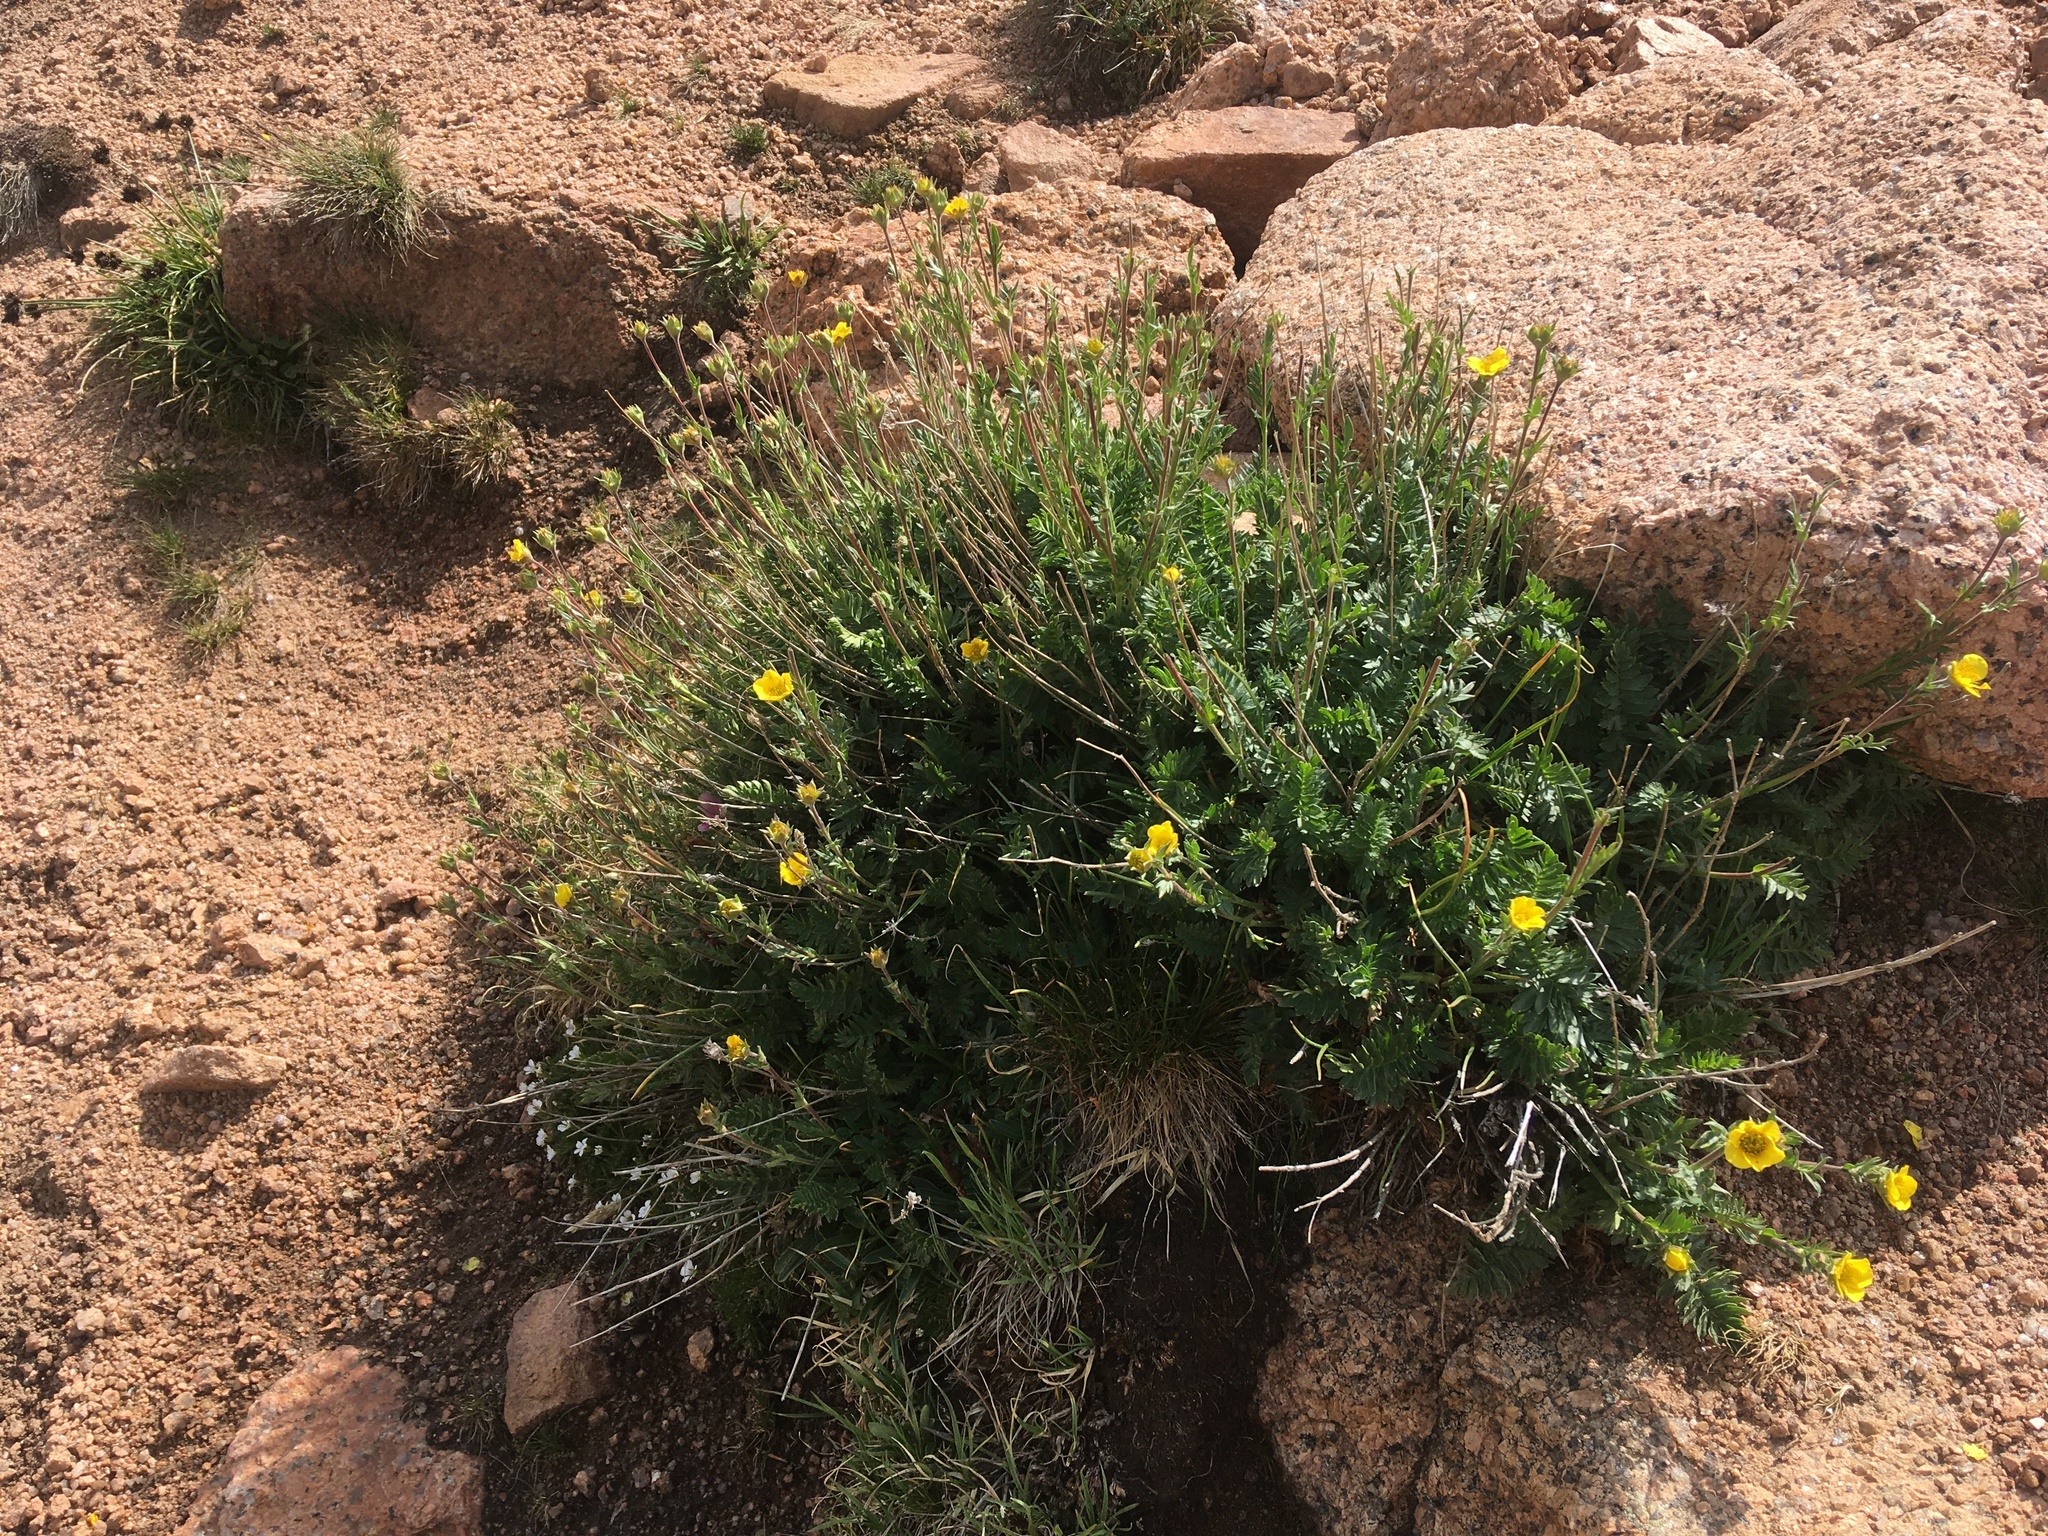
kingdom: Plantae
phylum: Tracheophyta
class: Magnoliopsida
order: Rosales
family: Rosaceae
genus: Geum
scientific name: Geum rossii
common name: Alpine avens
